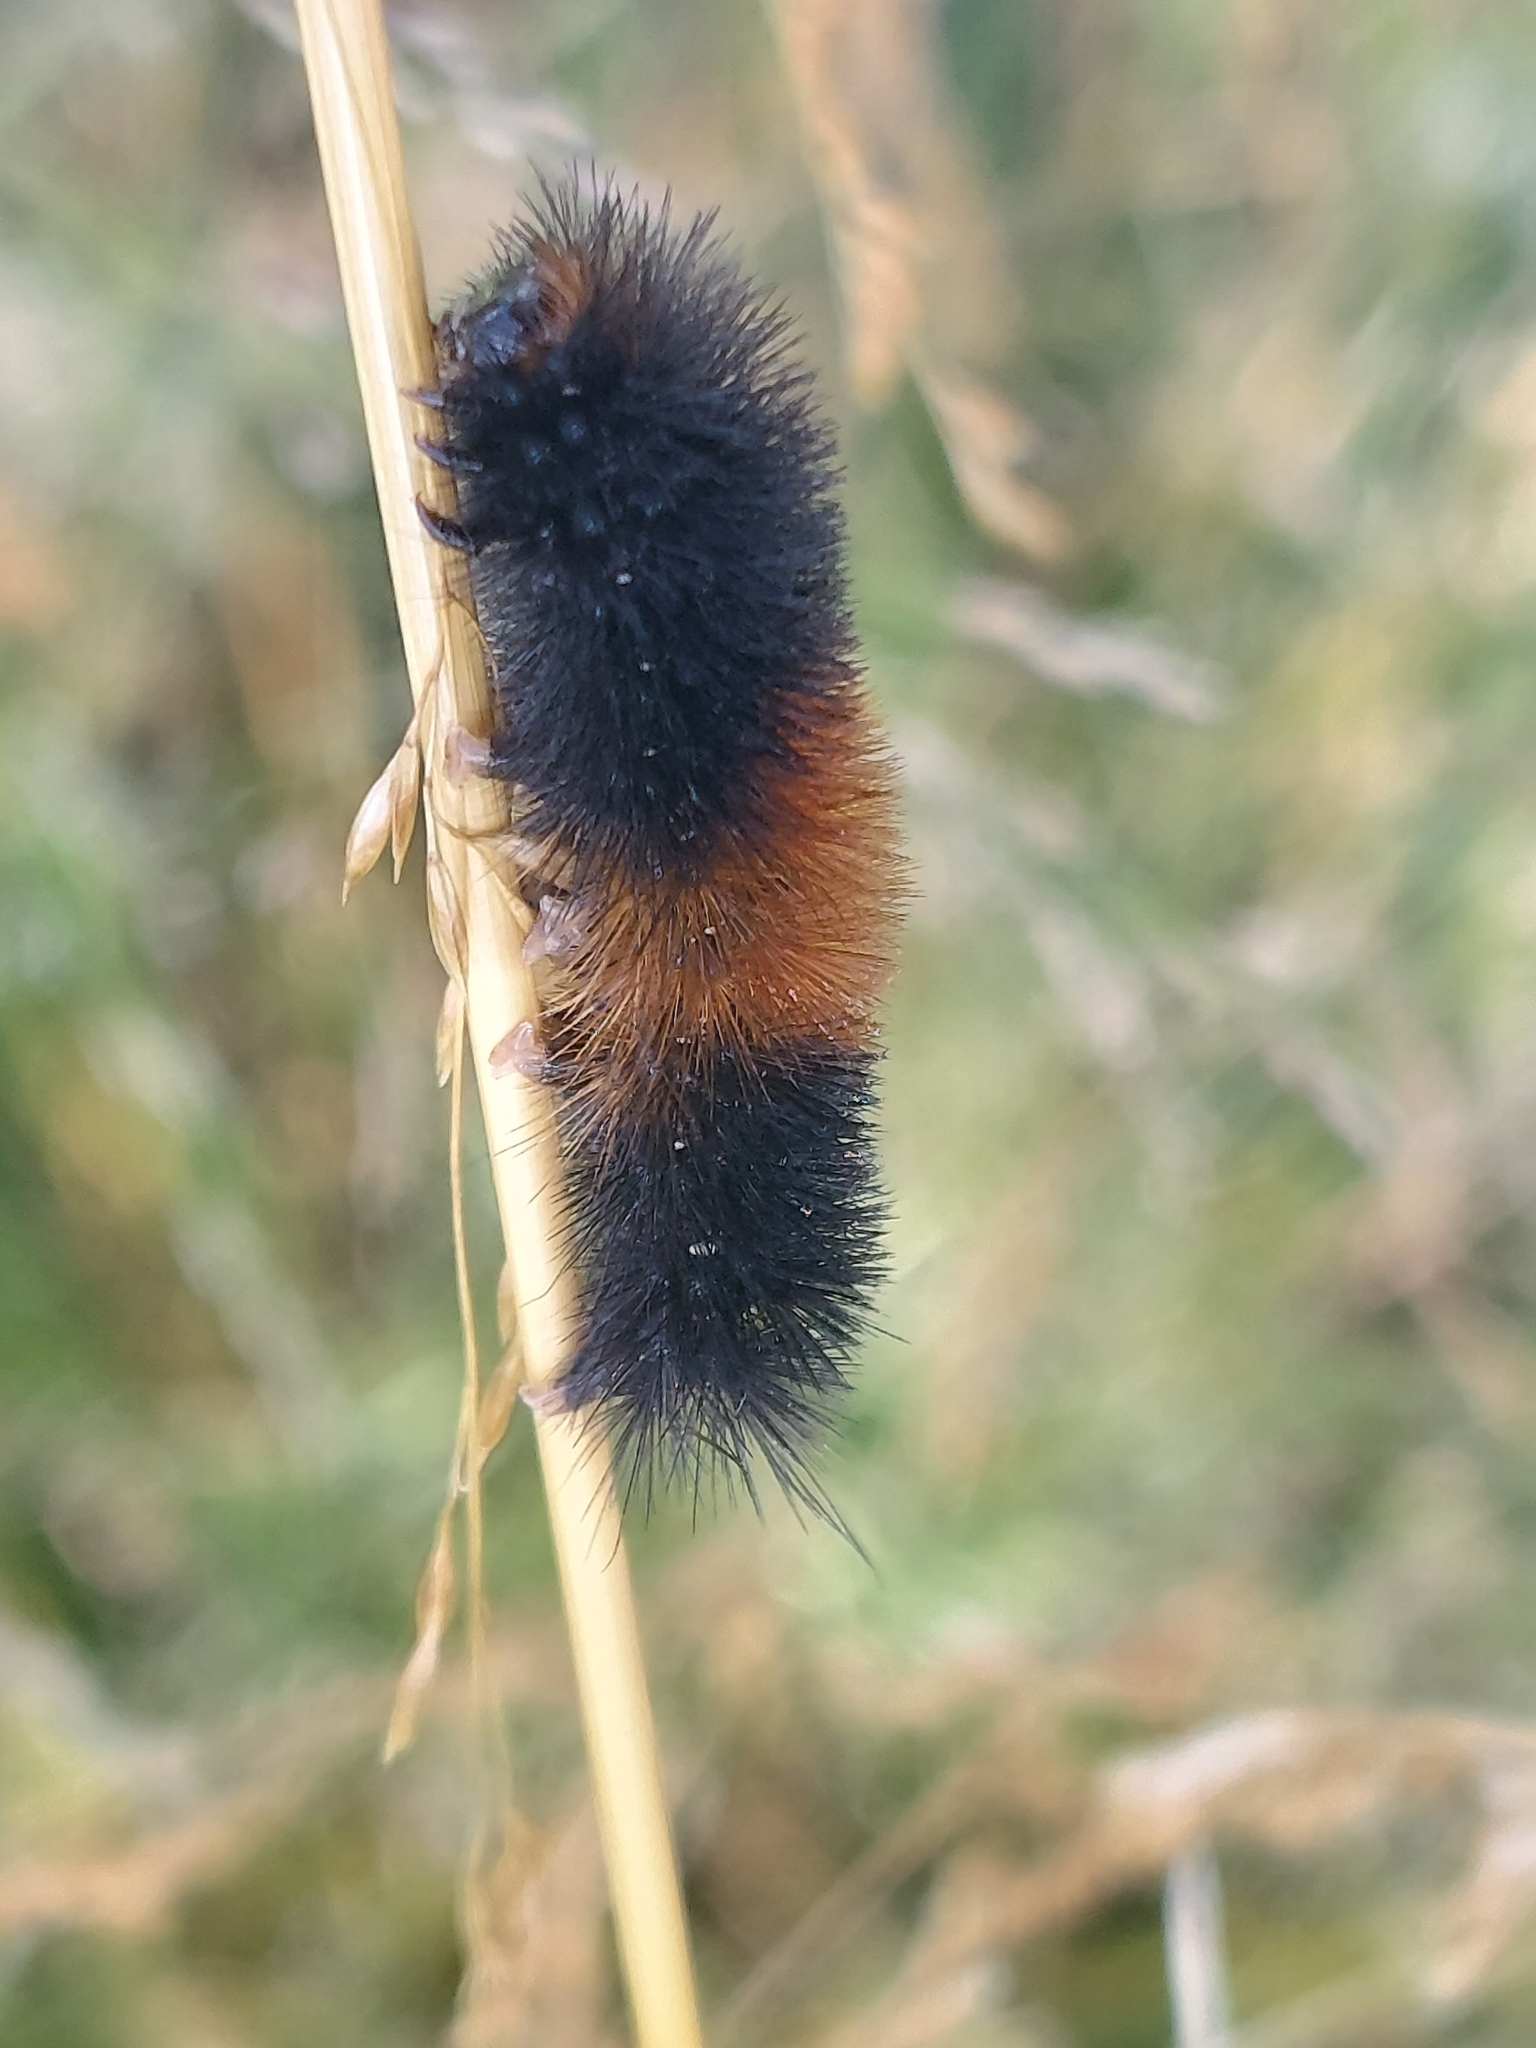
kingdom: Animalia
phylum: Arthropoda
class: Insecta
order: Lepidoptera
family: Erebidae
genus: Pyrrharctia
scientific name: Pyrrharctia isabella
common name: Isabella tiger moth
